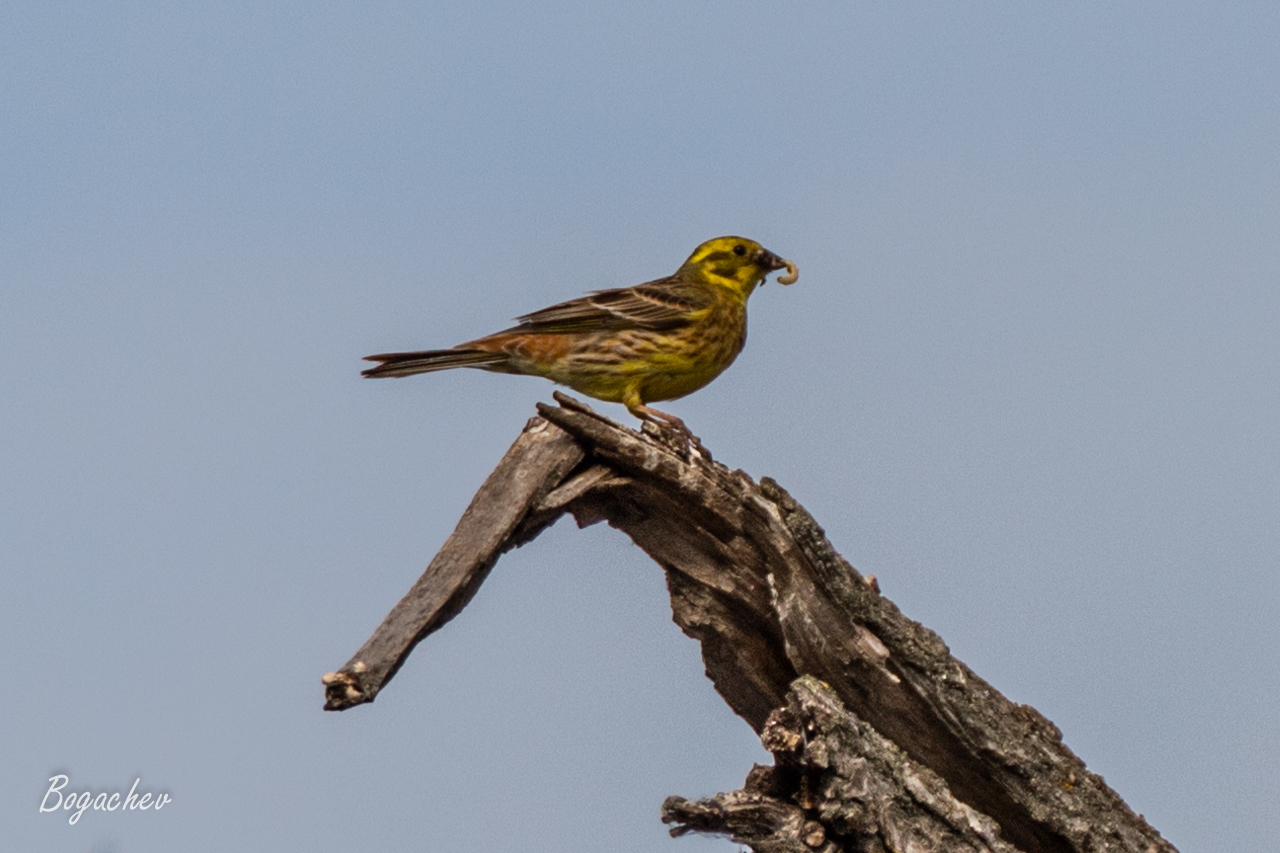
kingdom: Animalia
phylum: Chordata
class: Aves
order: Passeriformes
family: Emberizidae
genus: Emberiza
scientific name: Emberiza citrinella
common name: Yellowhammer
